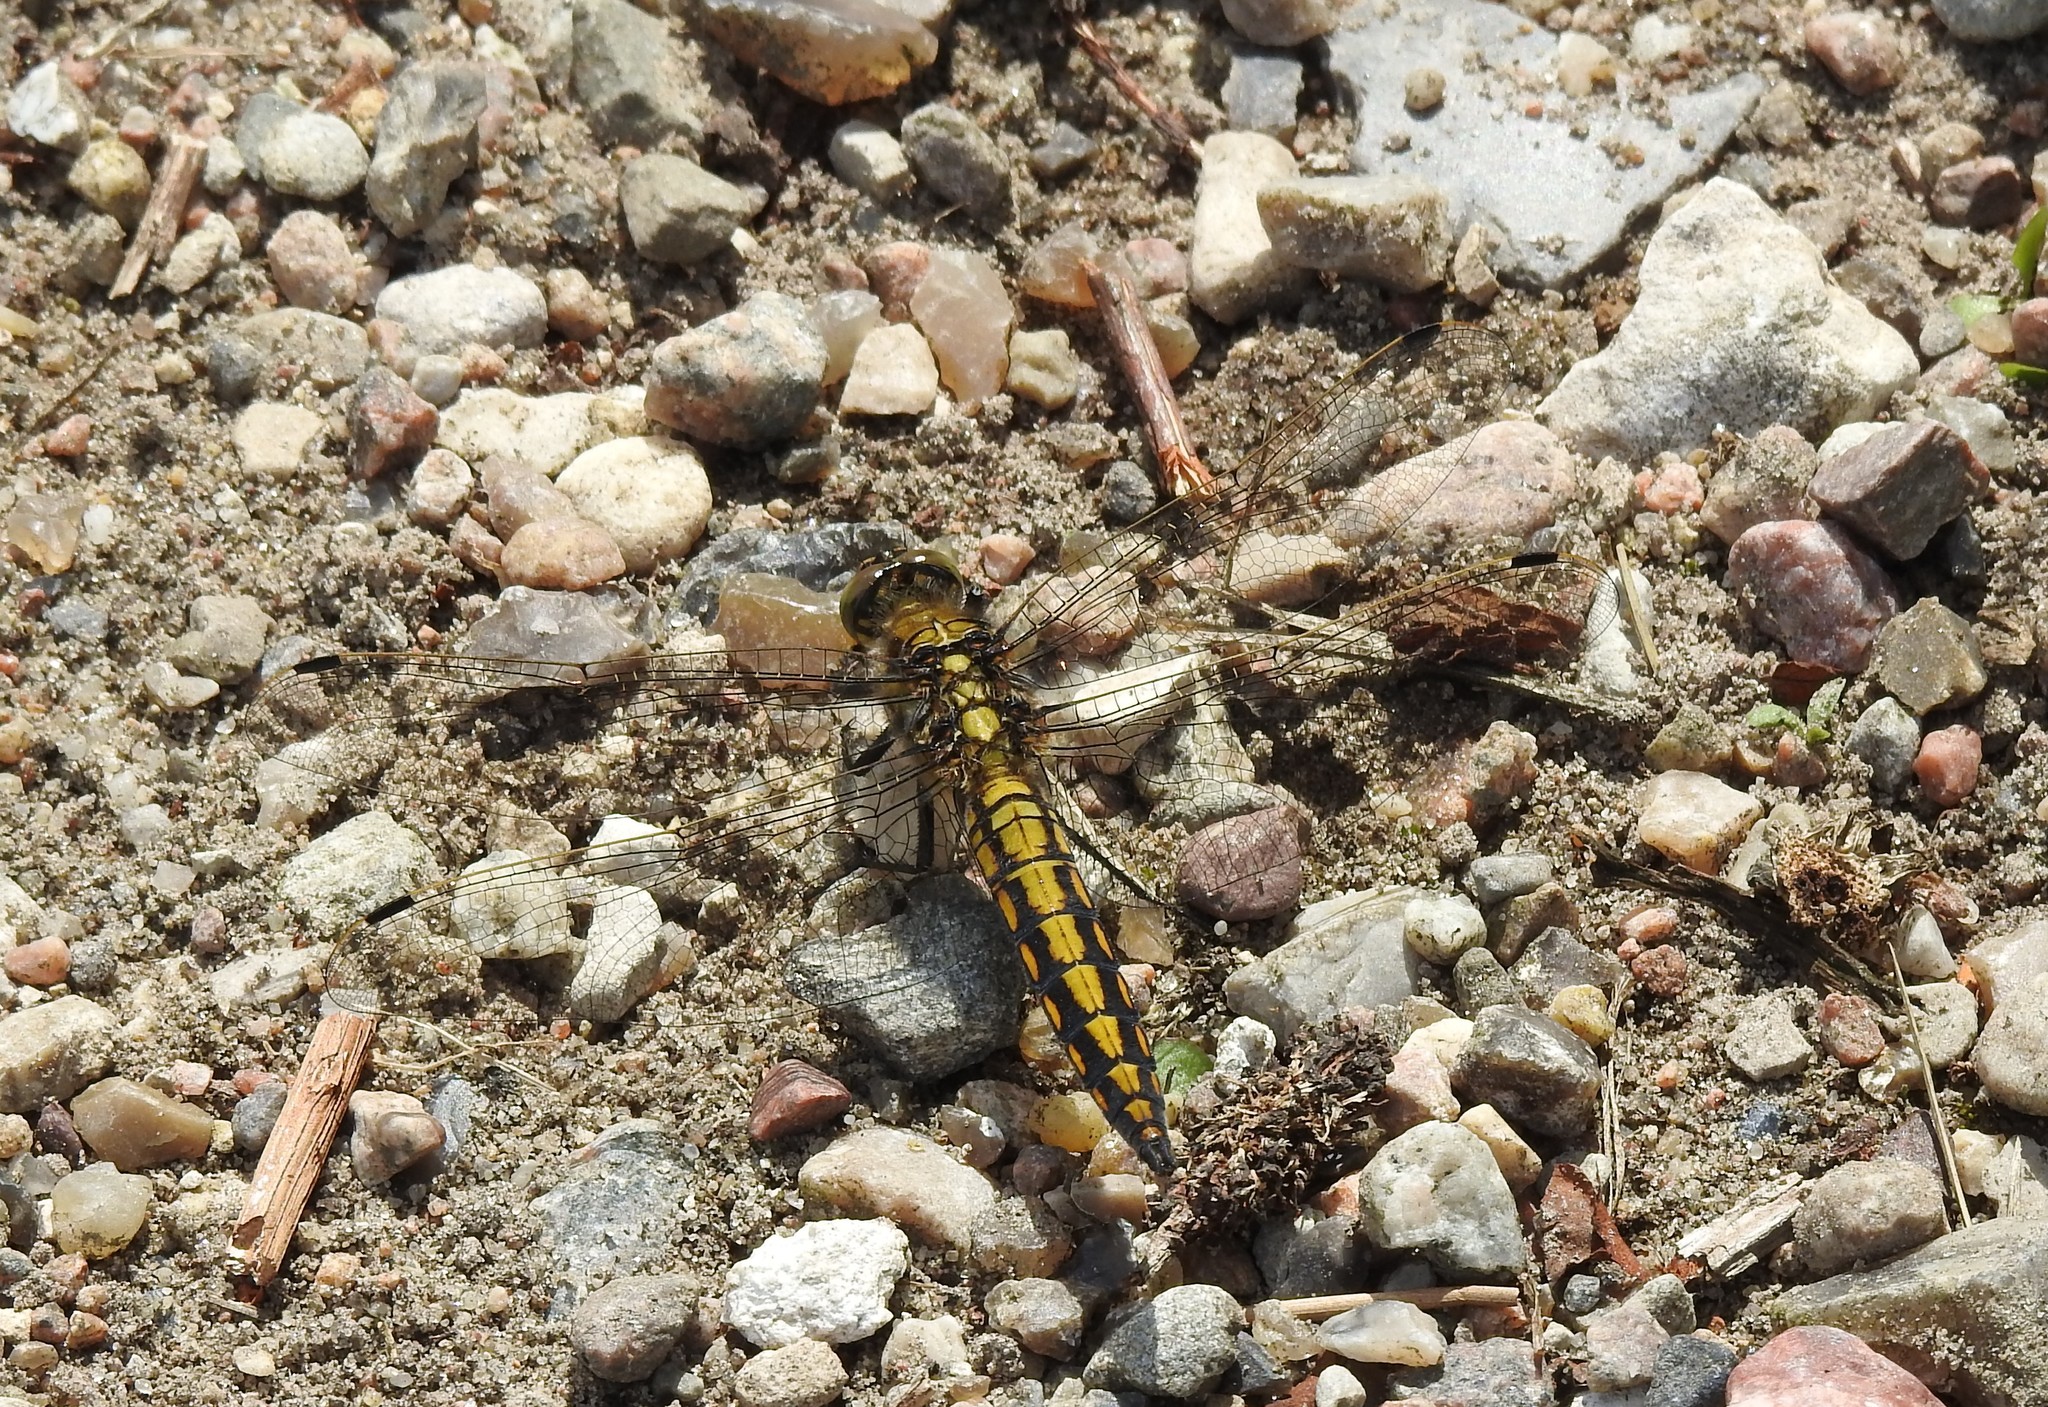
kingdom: Animalia
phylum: Arthropoda
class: Insecta
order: Odonata
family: Libellulidae
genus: Orthetrum
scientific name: Orthetrum cancellatum
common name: Black-tailed skimmer
